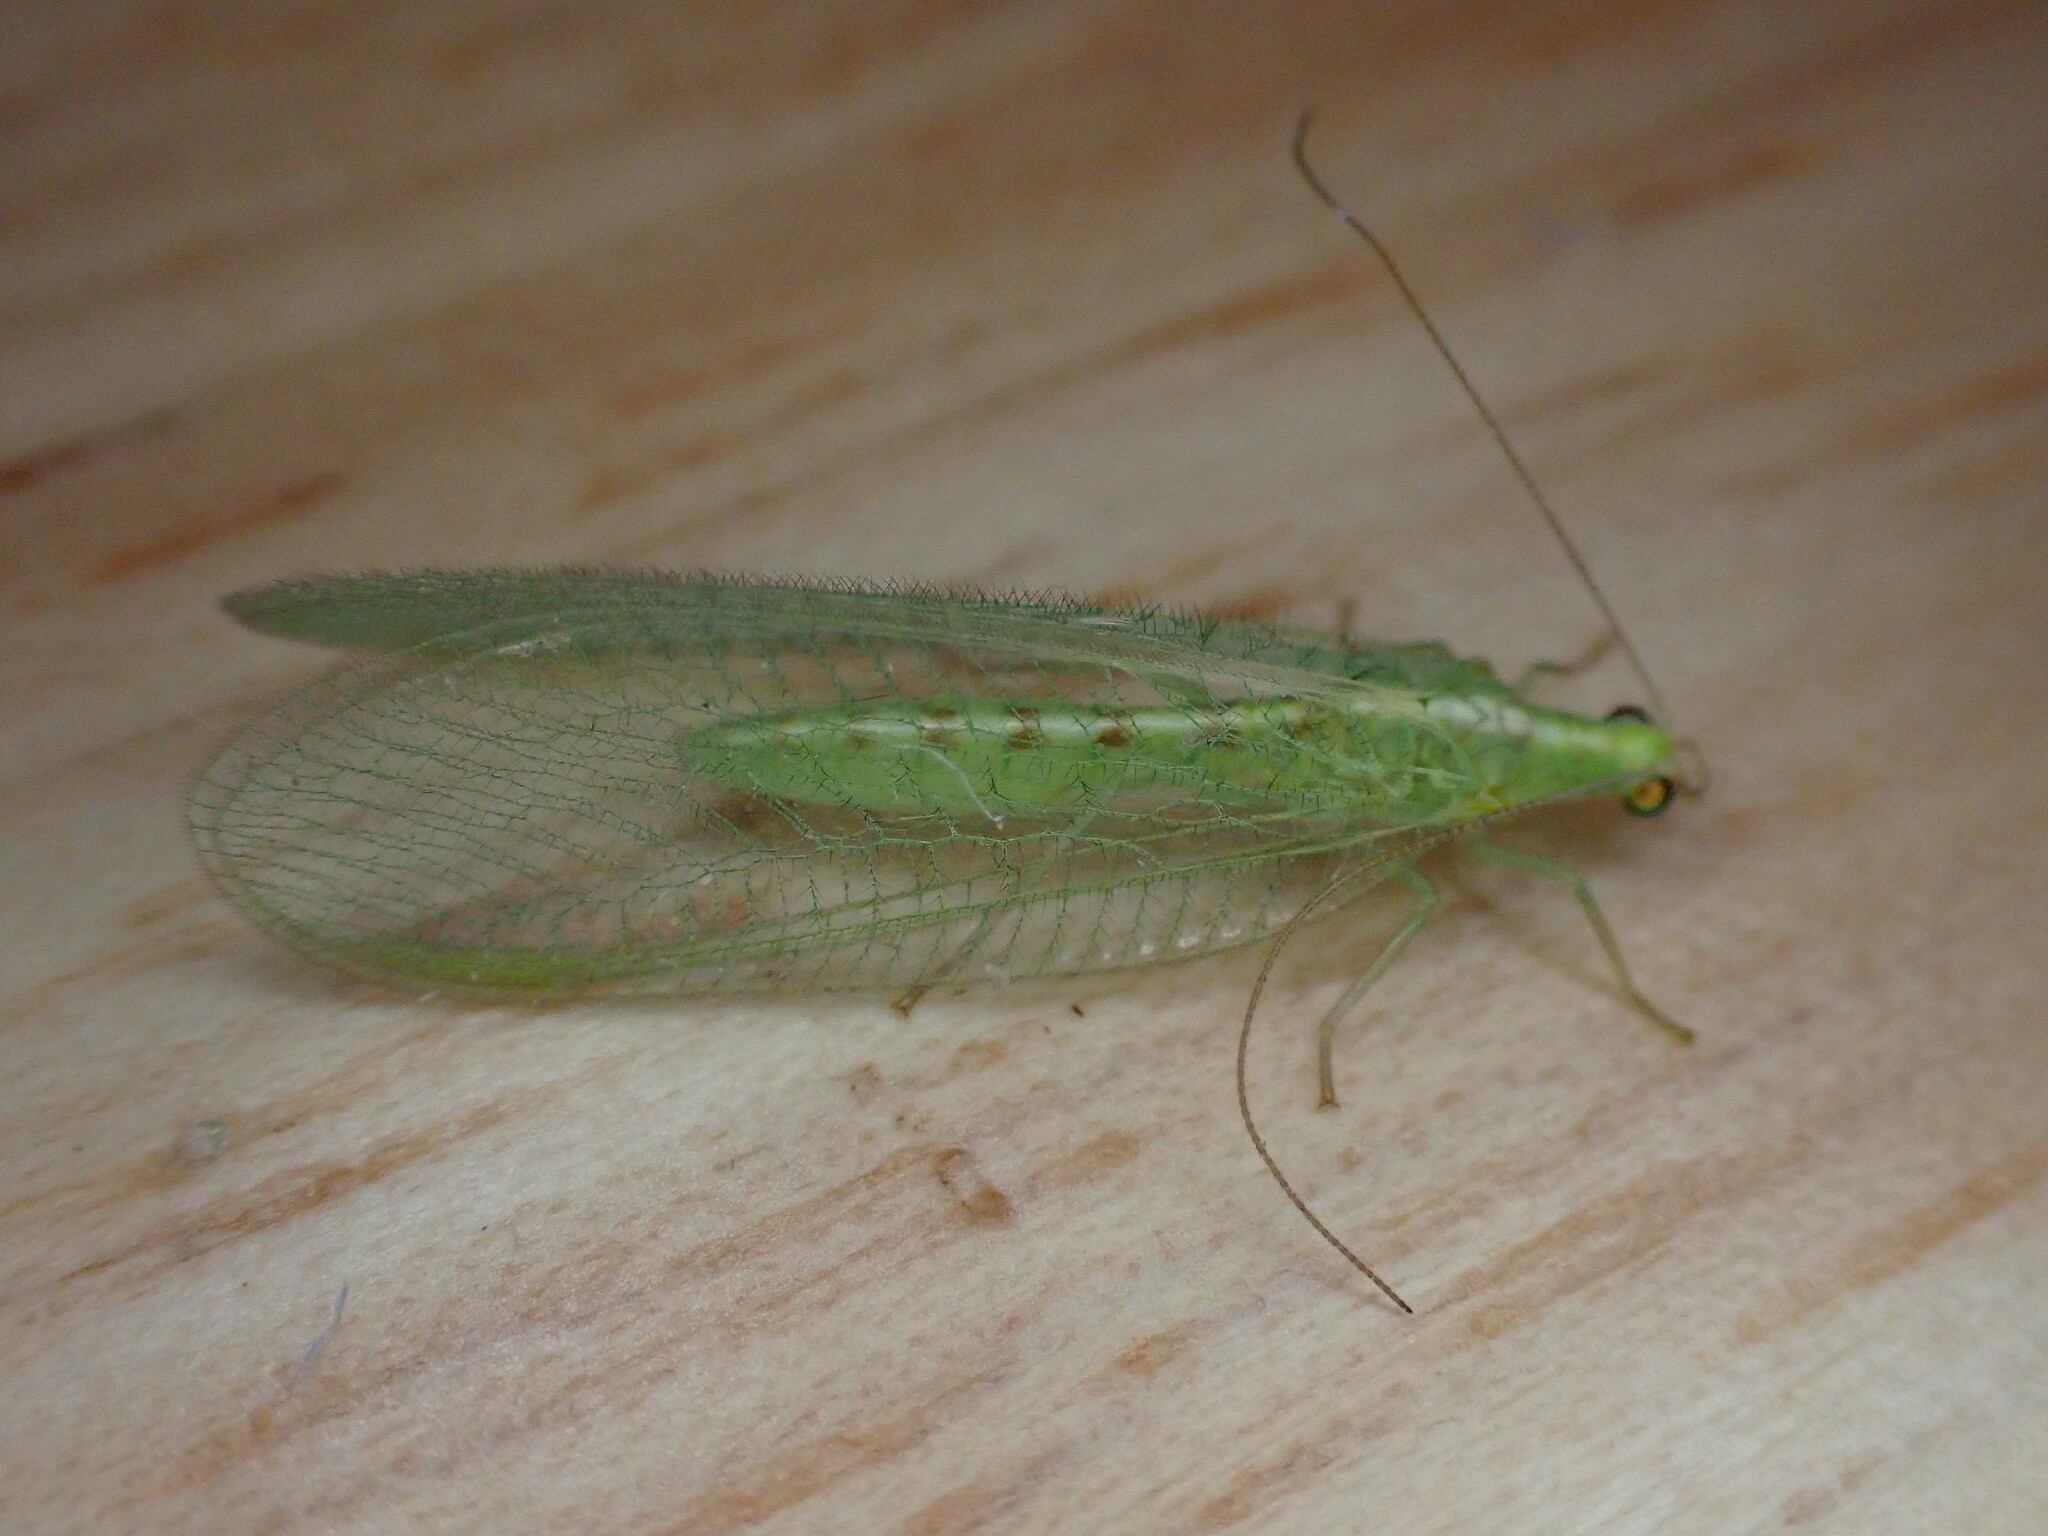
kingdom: Animalia
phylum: Arthropoda
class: Insecta
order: Neuroptera
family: Chrysopidae
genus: Chrysoperla
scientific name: Chrysoperla
